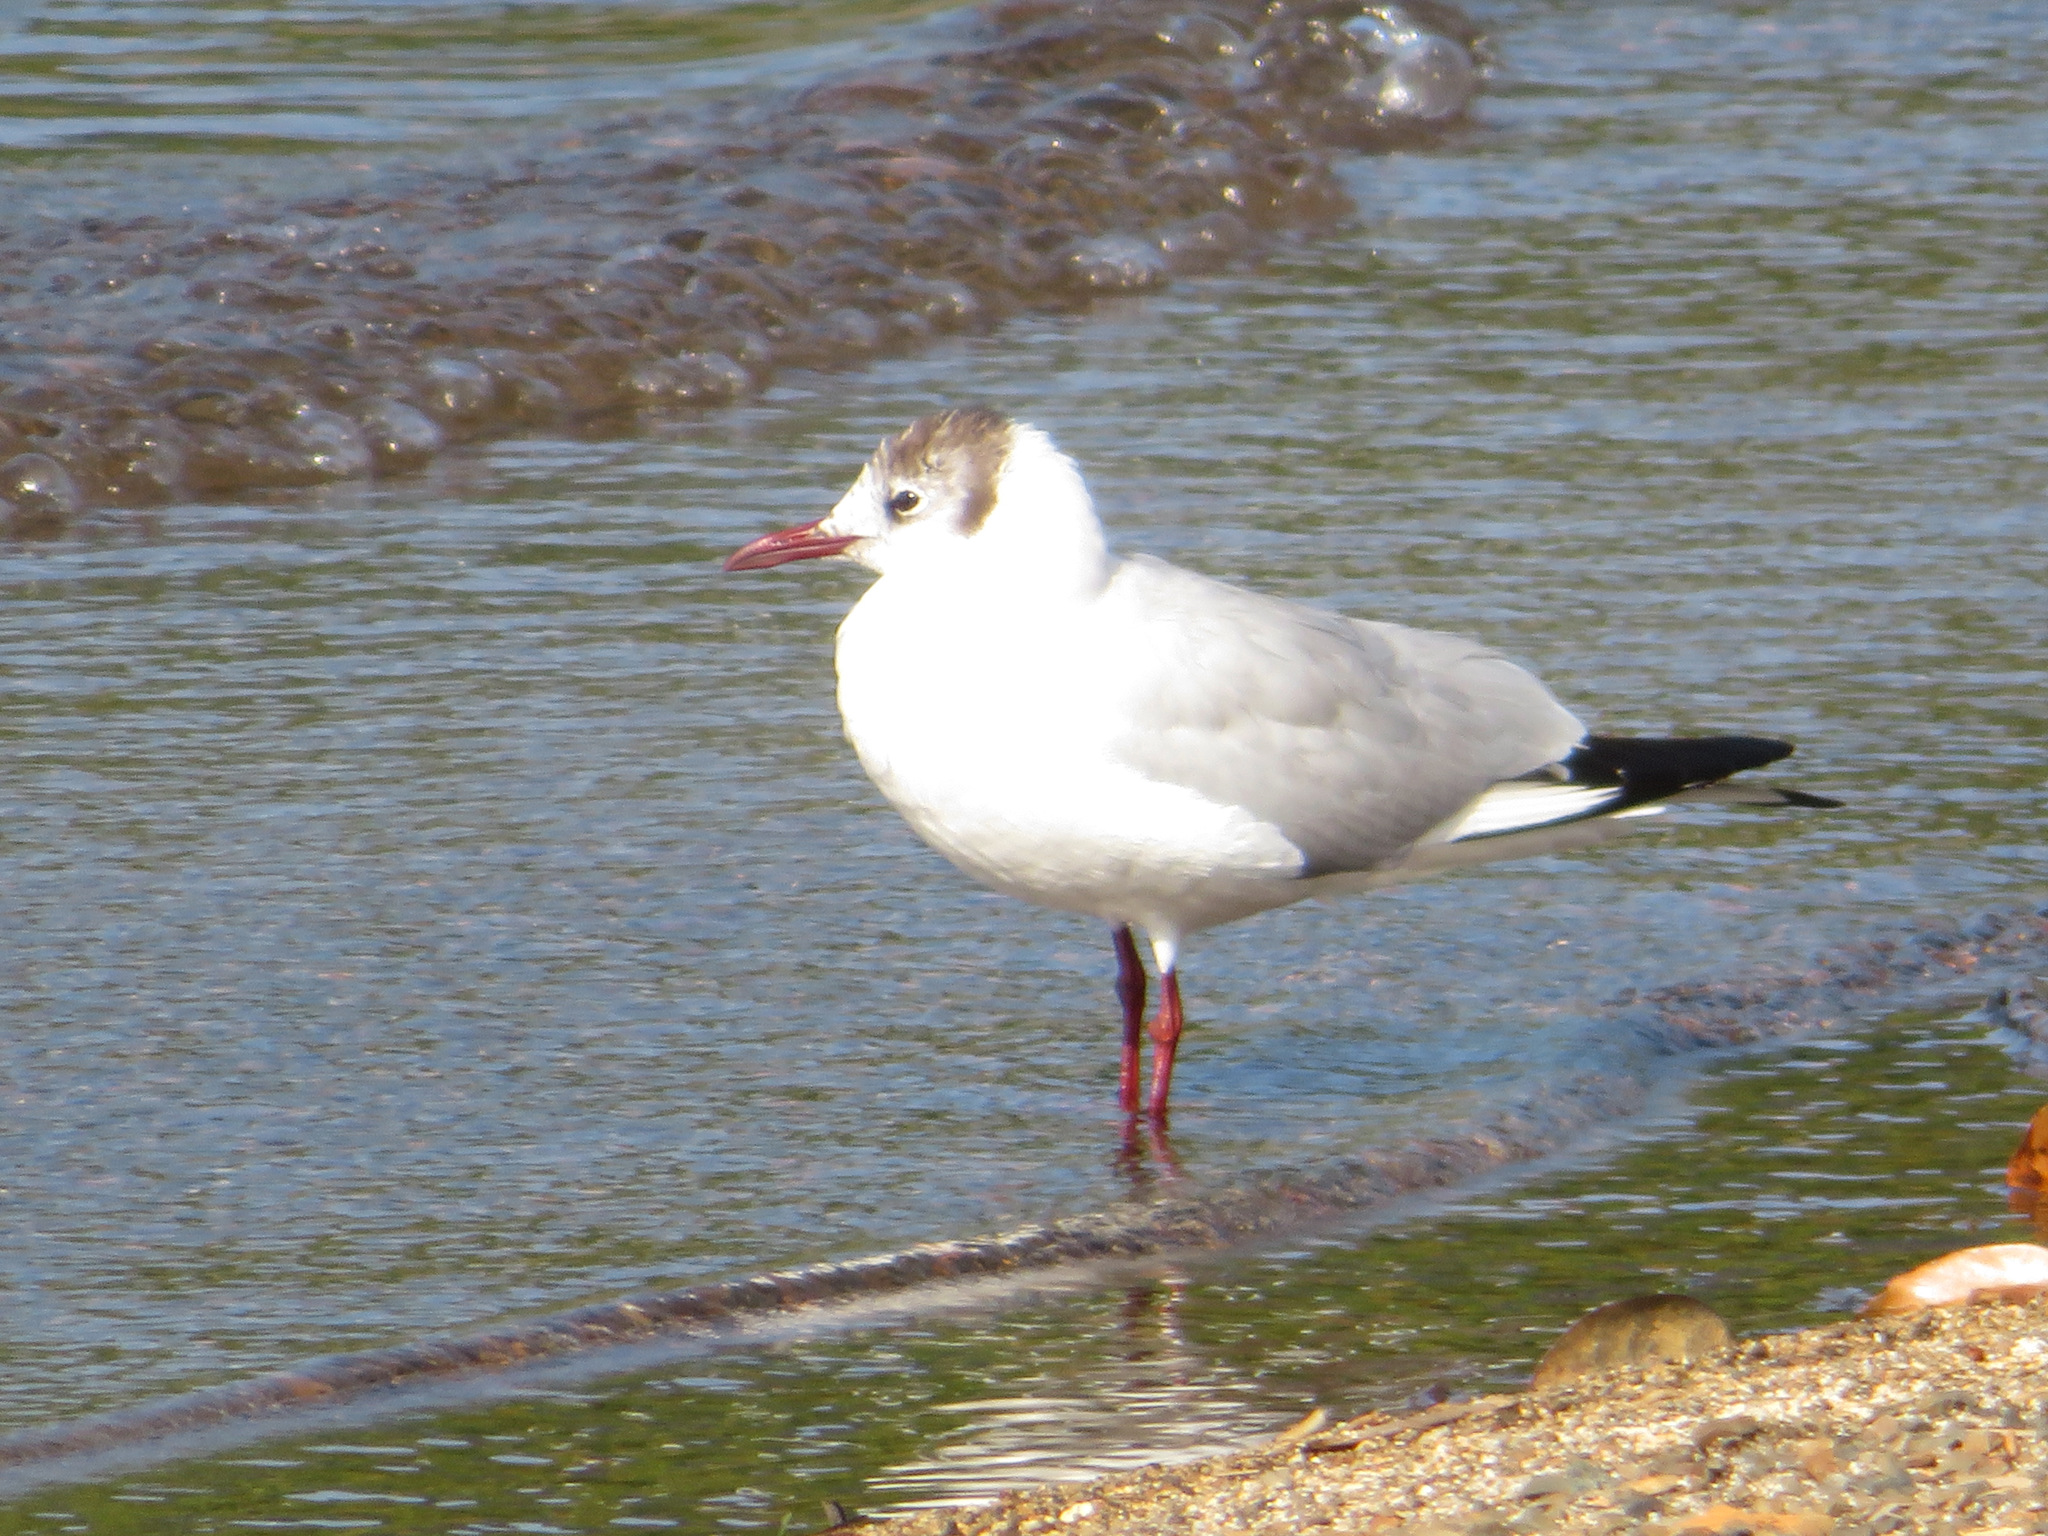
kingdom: Animalia
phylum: Chordata
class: Aves
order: Charadriiformes
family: Laridae
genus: Chroicocephalus
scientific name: Chroicocephalus ridibundus
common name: Black-headed gull
